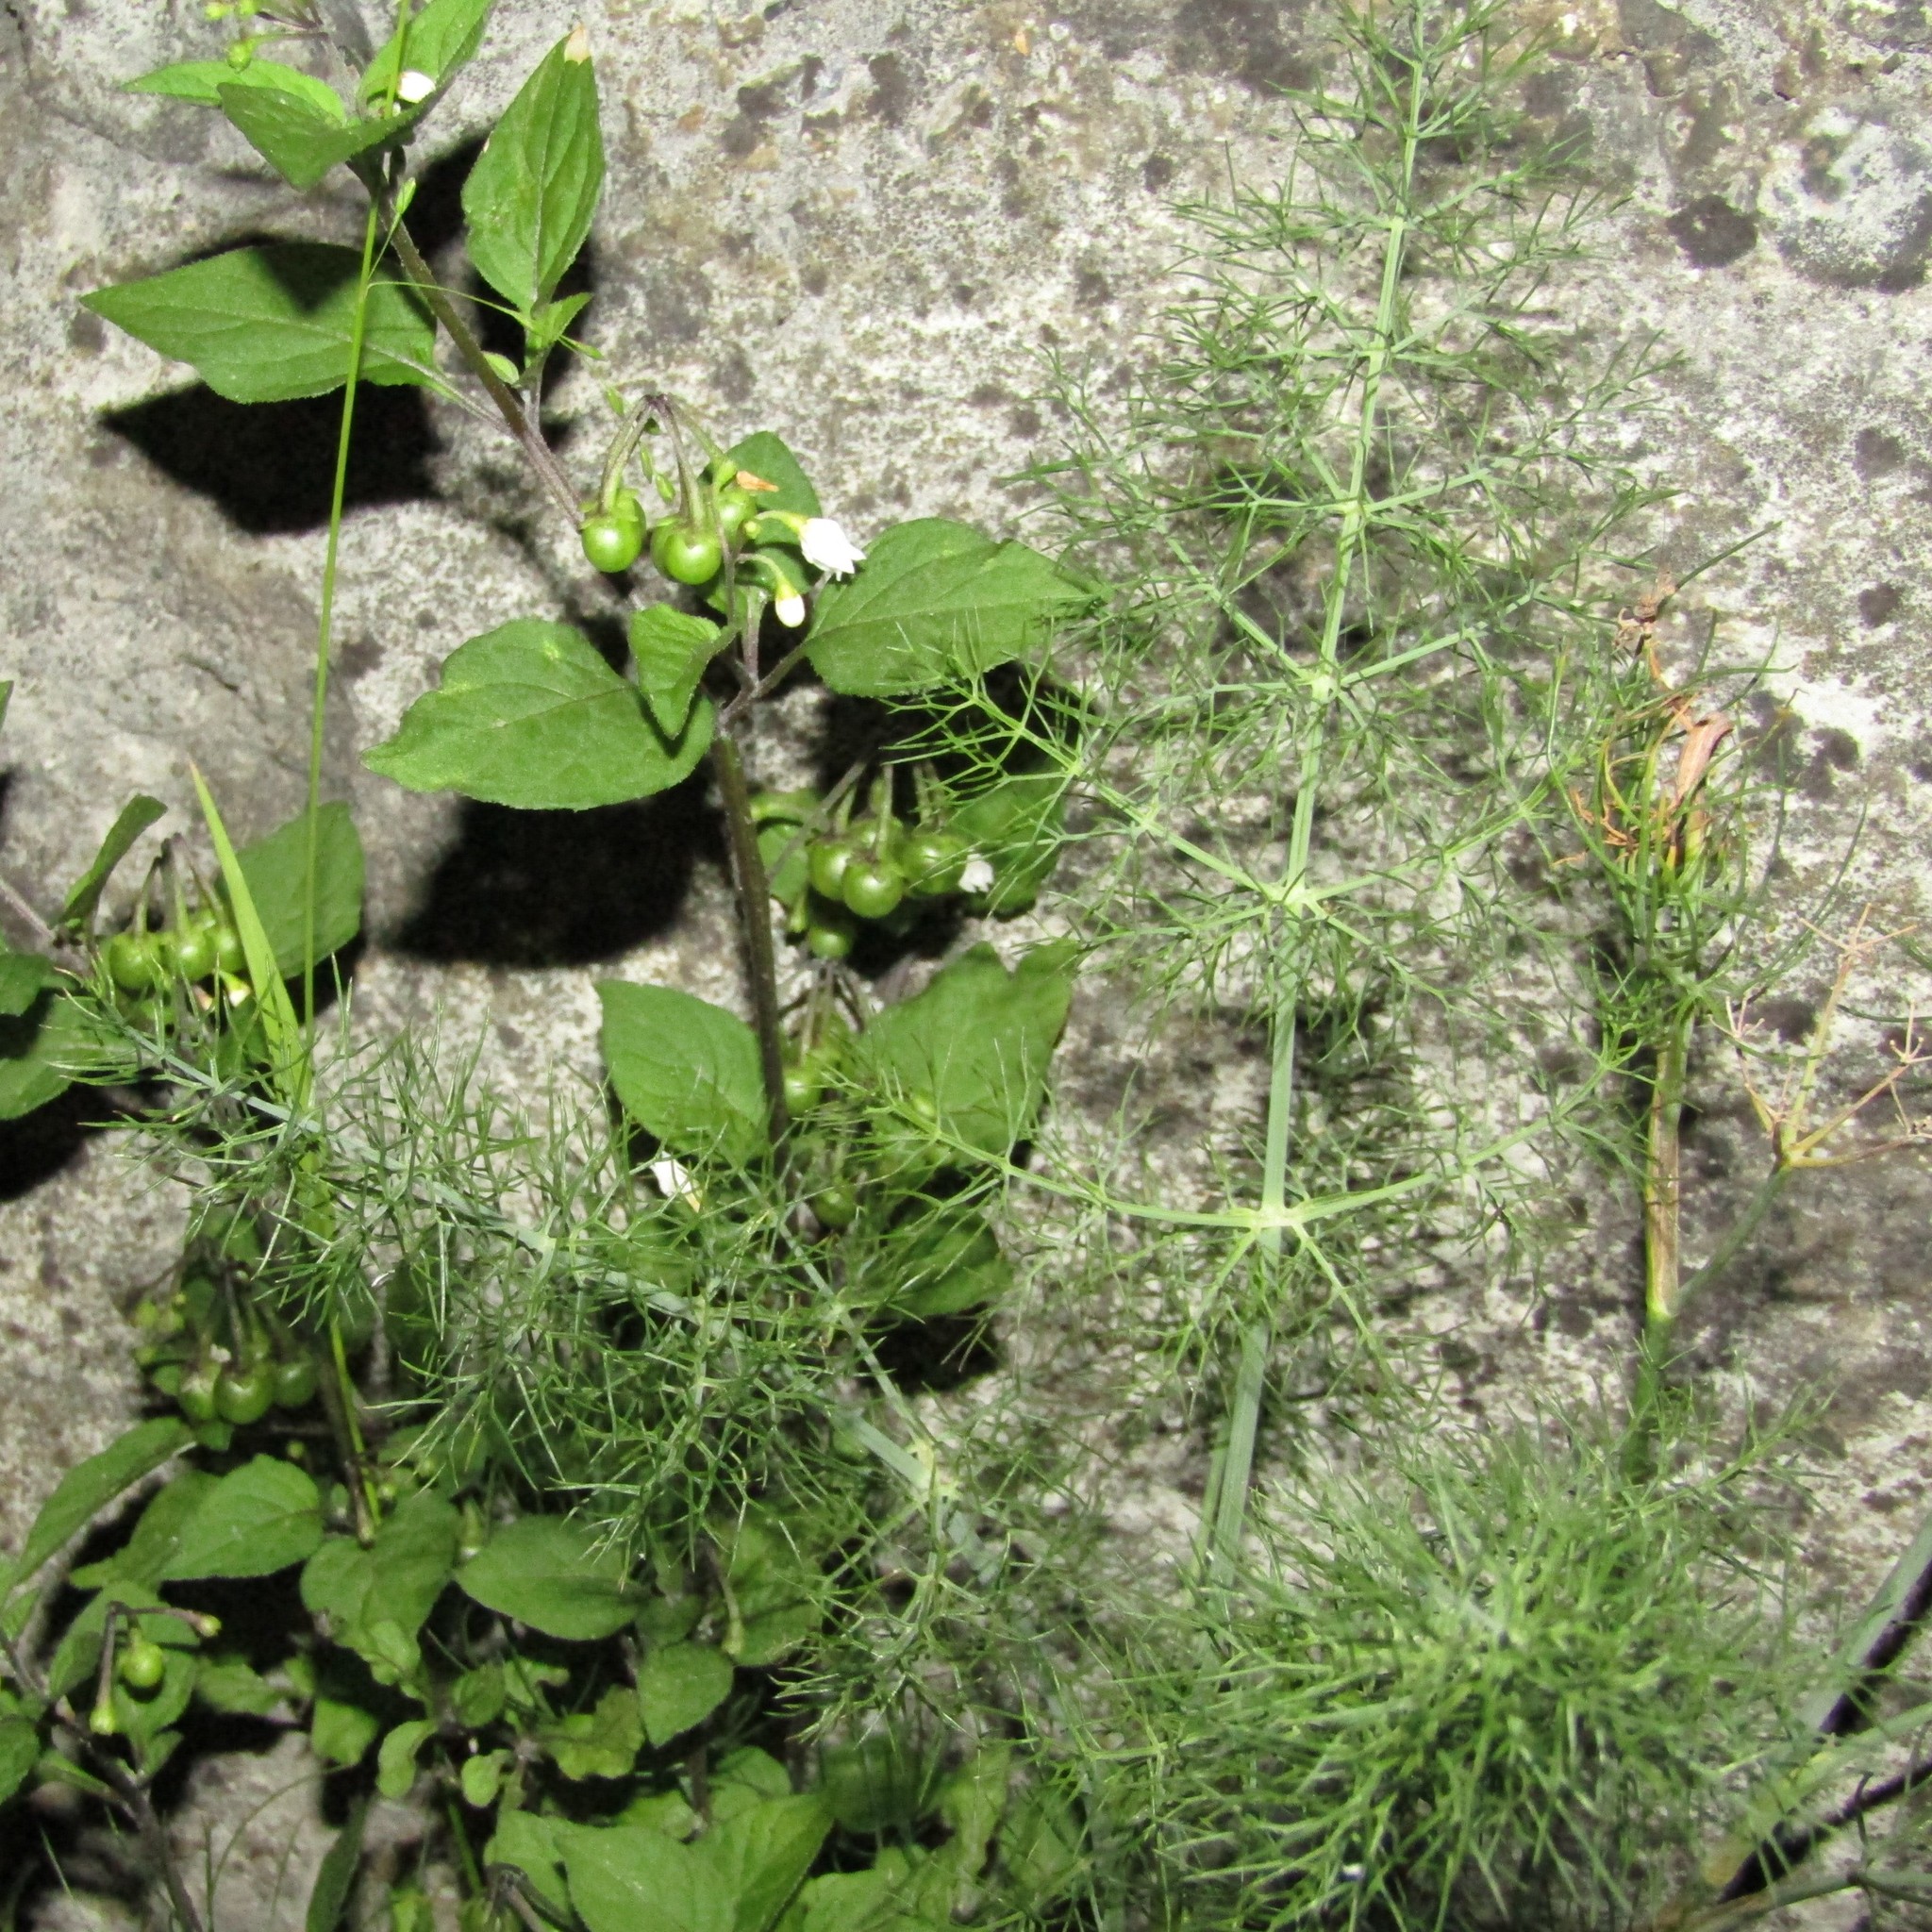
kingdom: Plantae
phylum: Tracheophyta
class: Magnoliopsida
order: Apiales
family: Apiaceae
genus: Foeniculum
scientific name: Foeniculum vulgare
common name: Fennel
